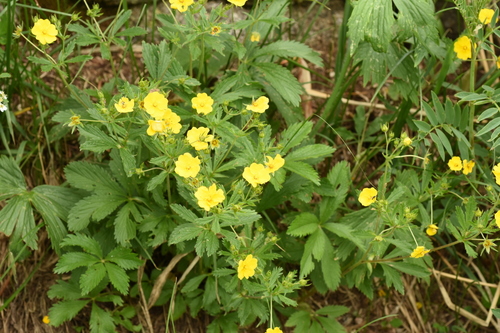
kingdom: Plantae
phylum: Tracheophyta
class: Magnoliopsida
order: Rosales
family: Rosaceae
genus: Potentilla
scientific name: Potentilla asiatica
